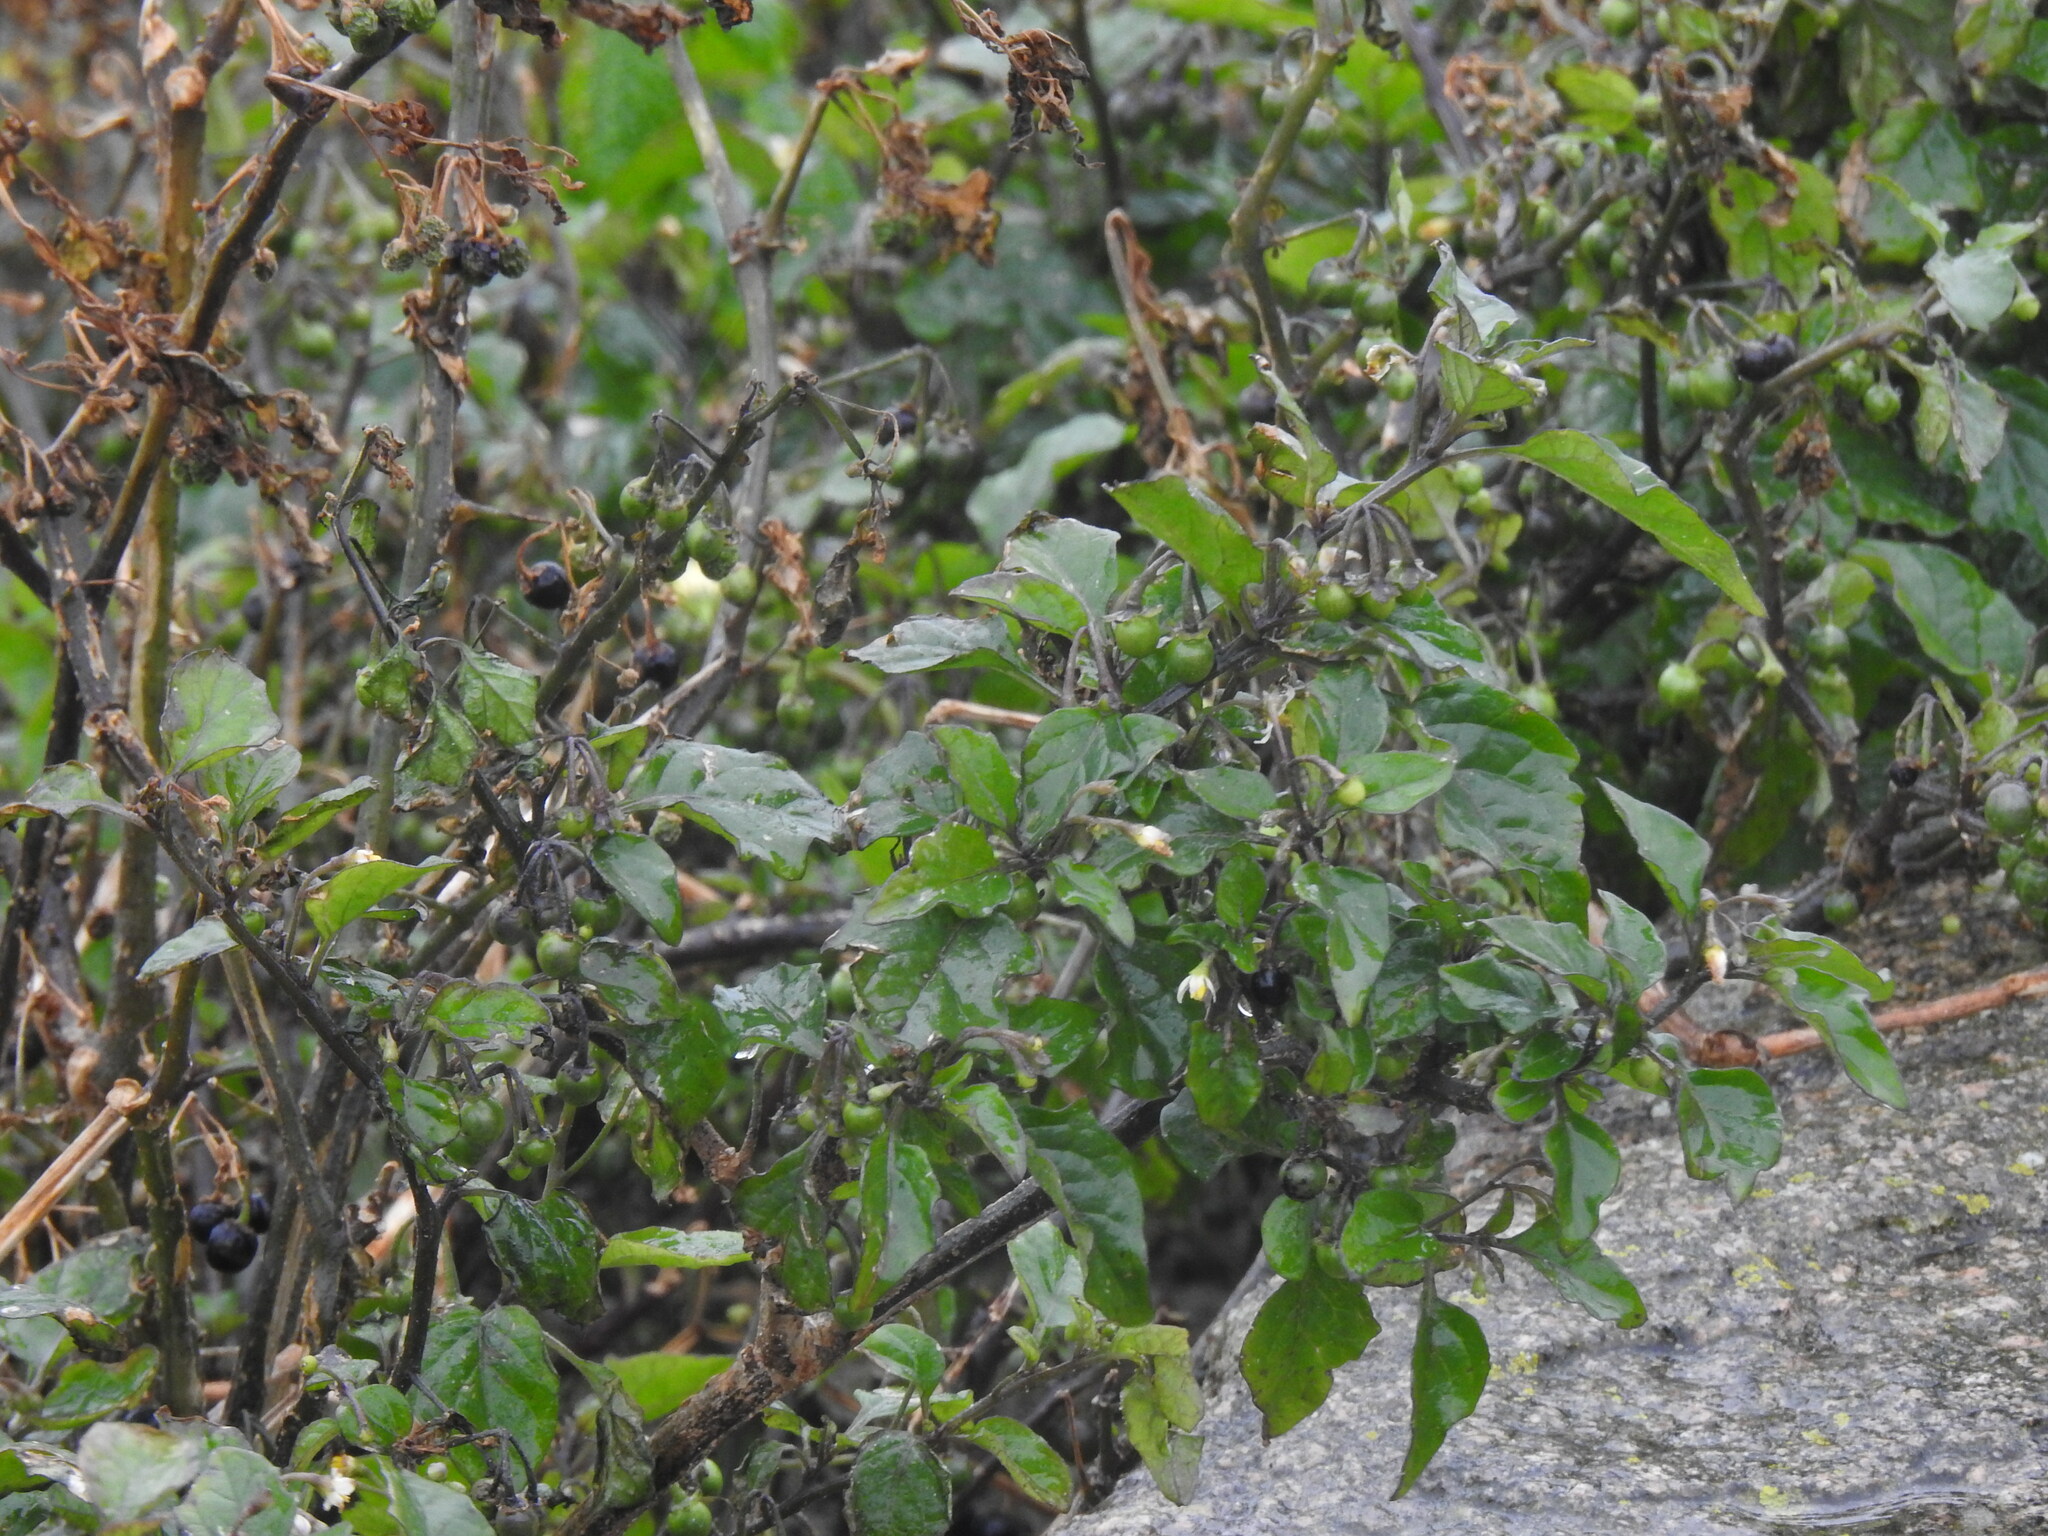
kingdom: Plantae
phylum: Tracheophyta
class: Magnoliopsida
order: Solanales
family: Solanaceae
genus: Solanum
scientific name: Solanum nigrum
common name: Black nightshade
